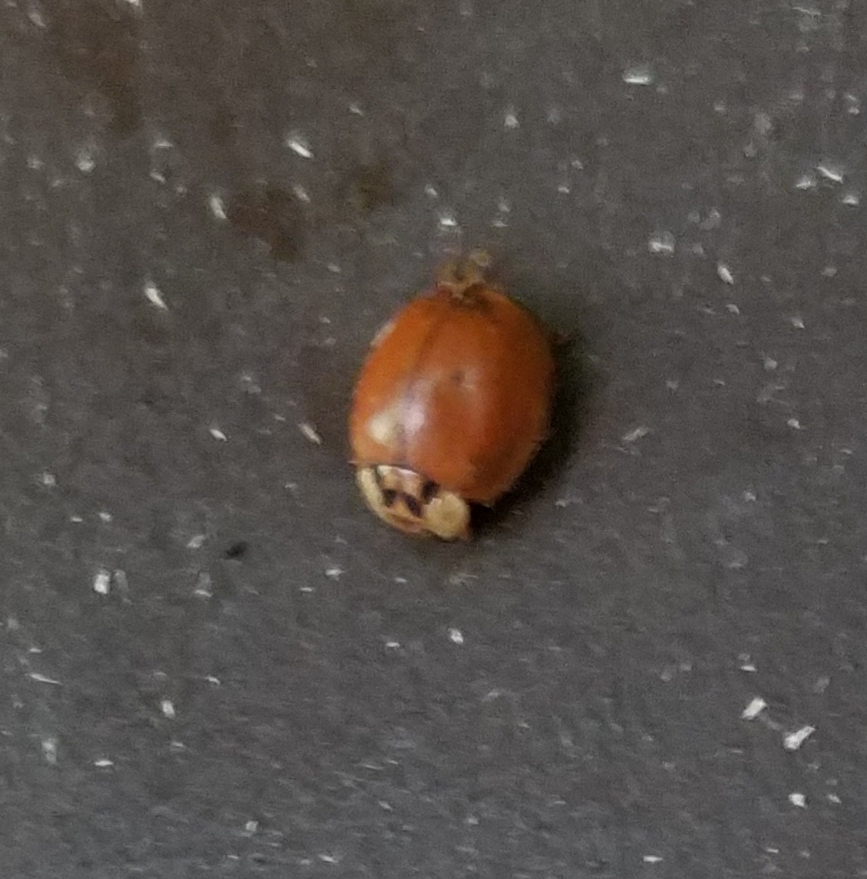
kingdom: Animalia
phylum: Arthropoda
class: Insecta
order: Coleoptera
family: Coccinellidae
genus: Harmonia
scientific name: Harmonia axyridis
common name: Harlequin ladybird
